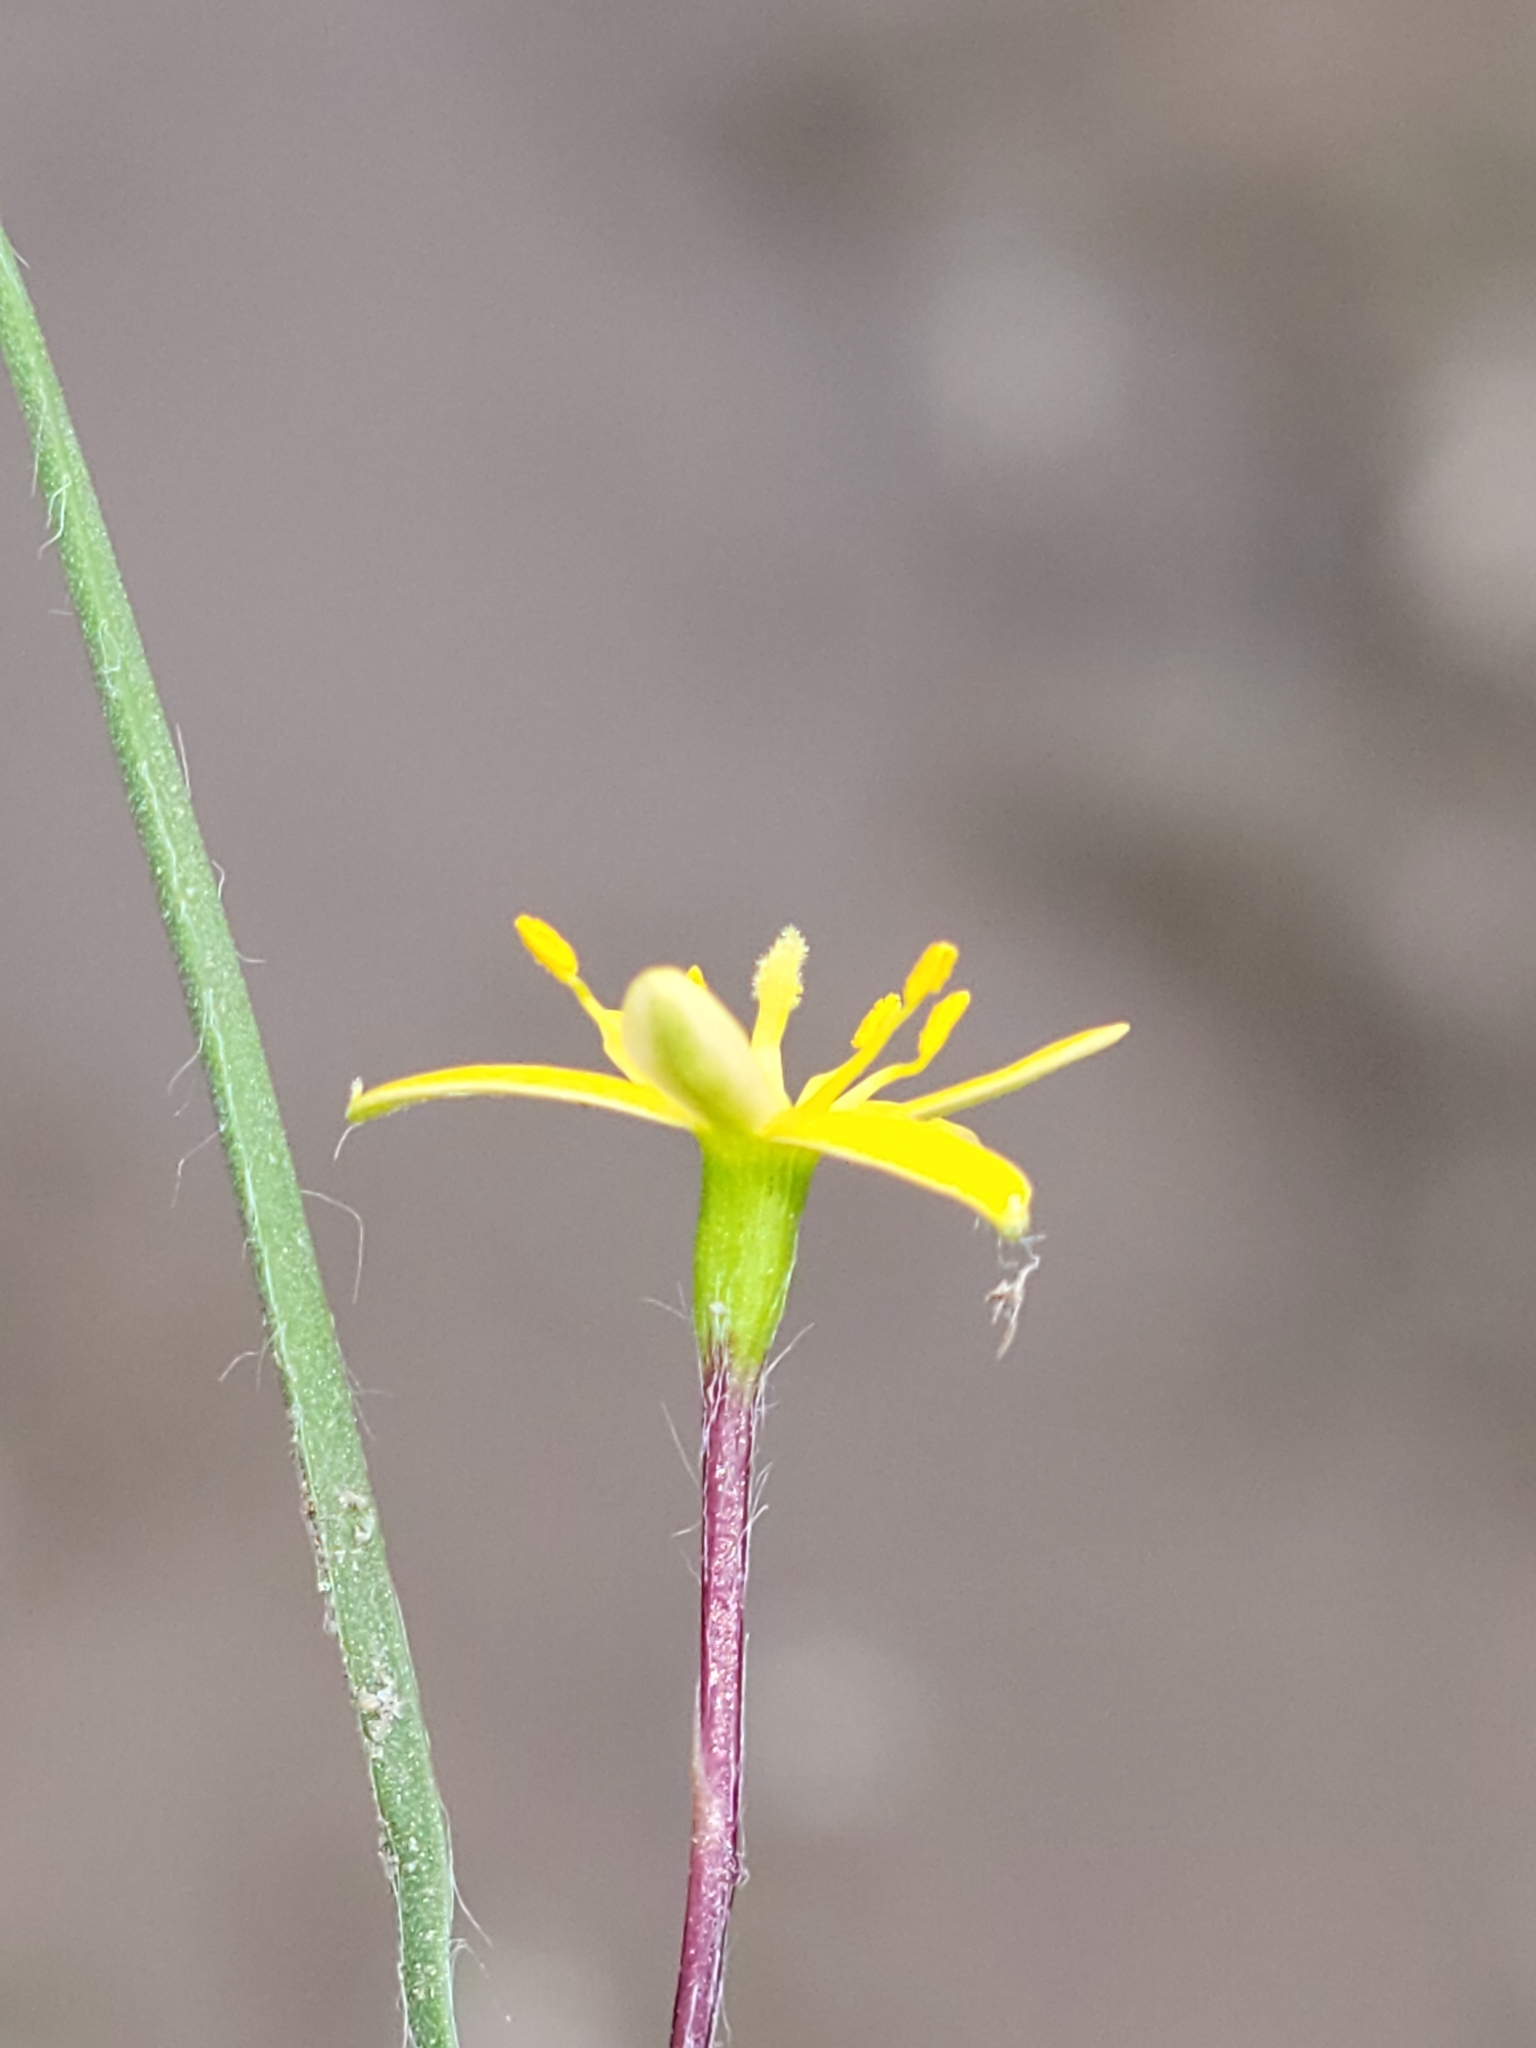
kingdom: Plantae
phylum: Tracheophyta
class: Liliopsida
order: Asparagales
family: Hypoxidaceae
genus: Hypoxis
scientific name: Hypoxis wrightii
